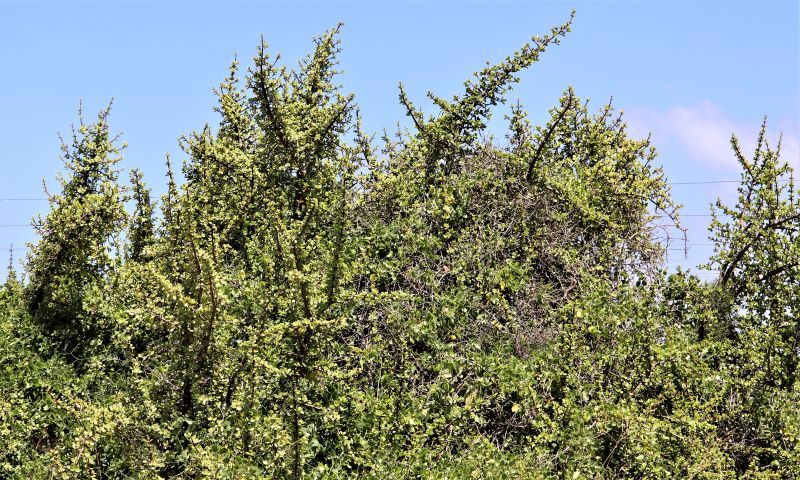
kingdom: Plantae
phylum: Tracheophyta
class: Magnoliopsida
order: Caryophyllales
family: Didiereaceae
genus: Portulacaria
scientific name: Portulacaria afra
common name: Elephant-bush
